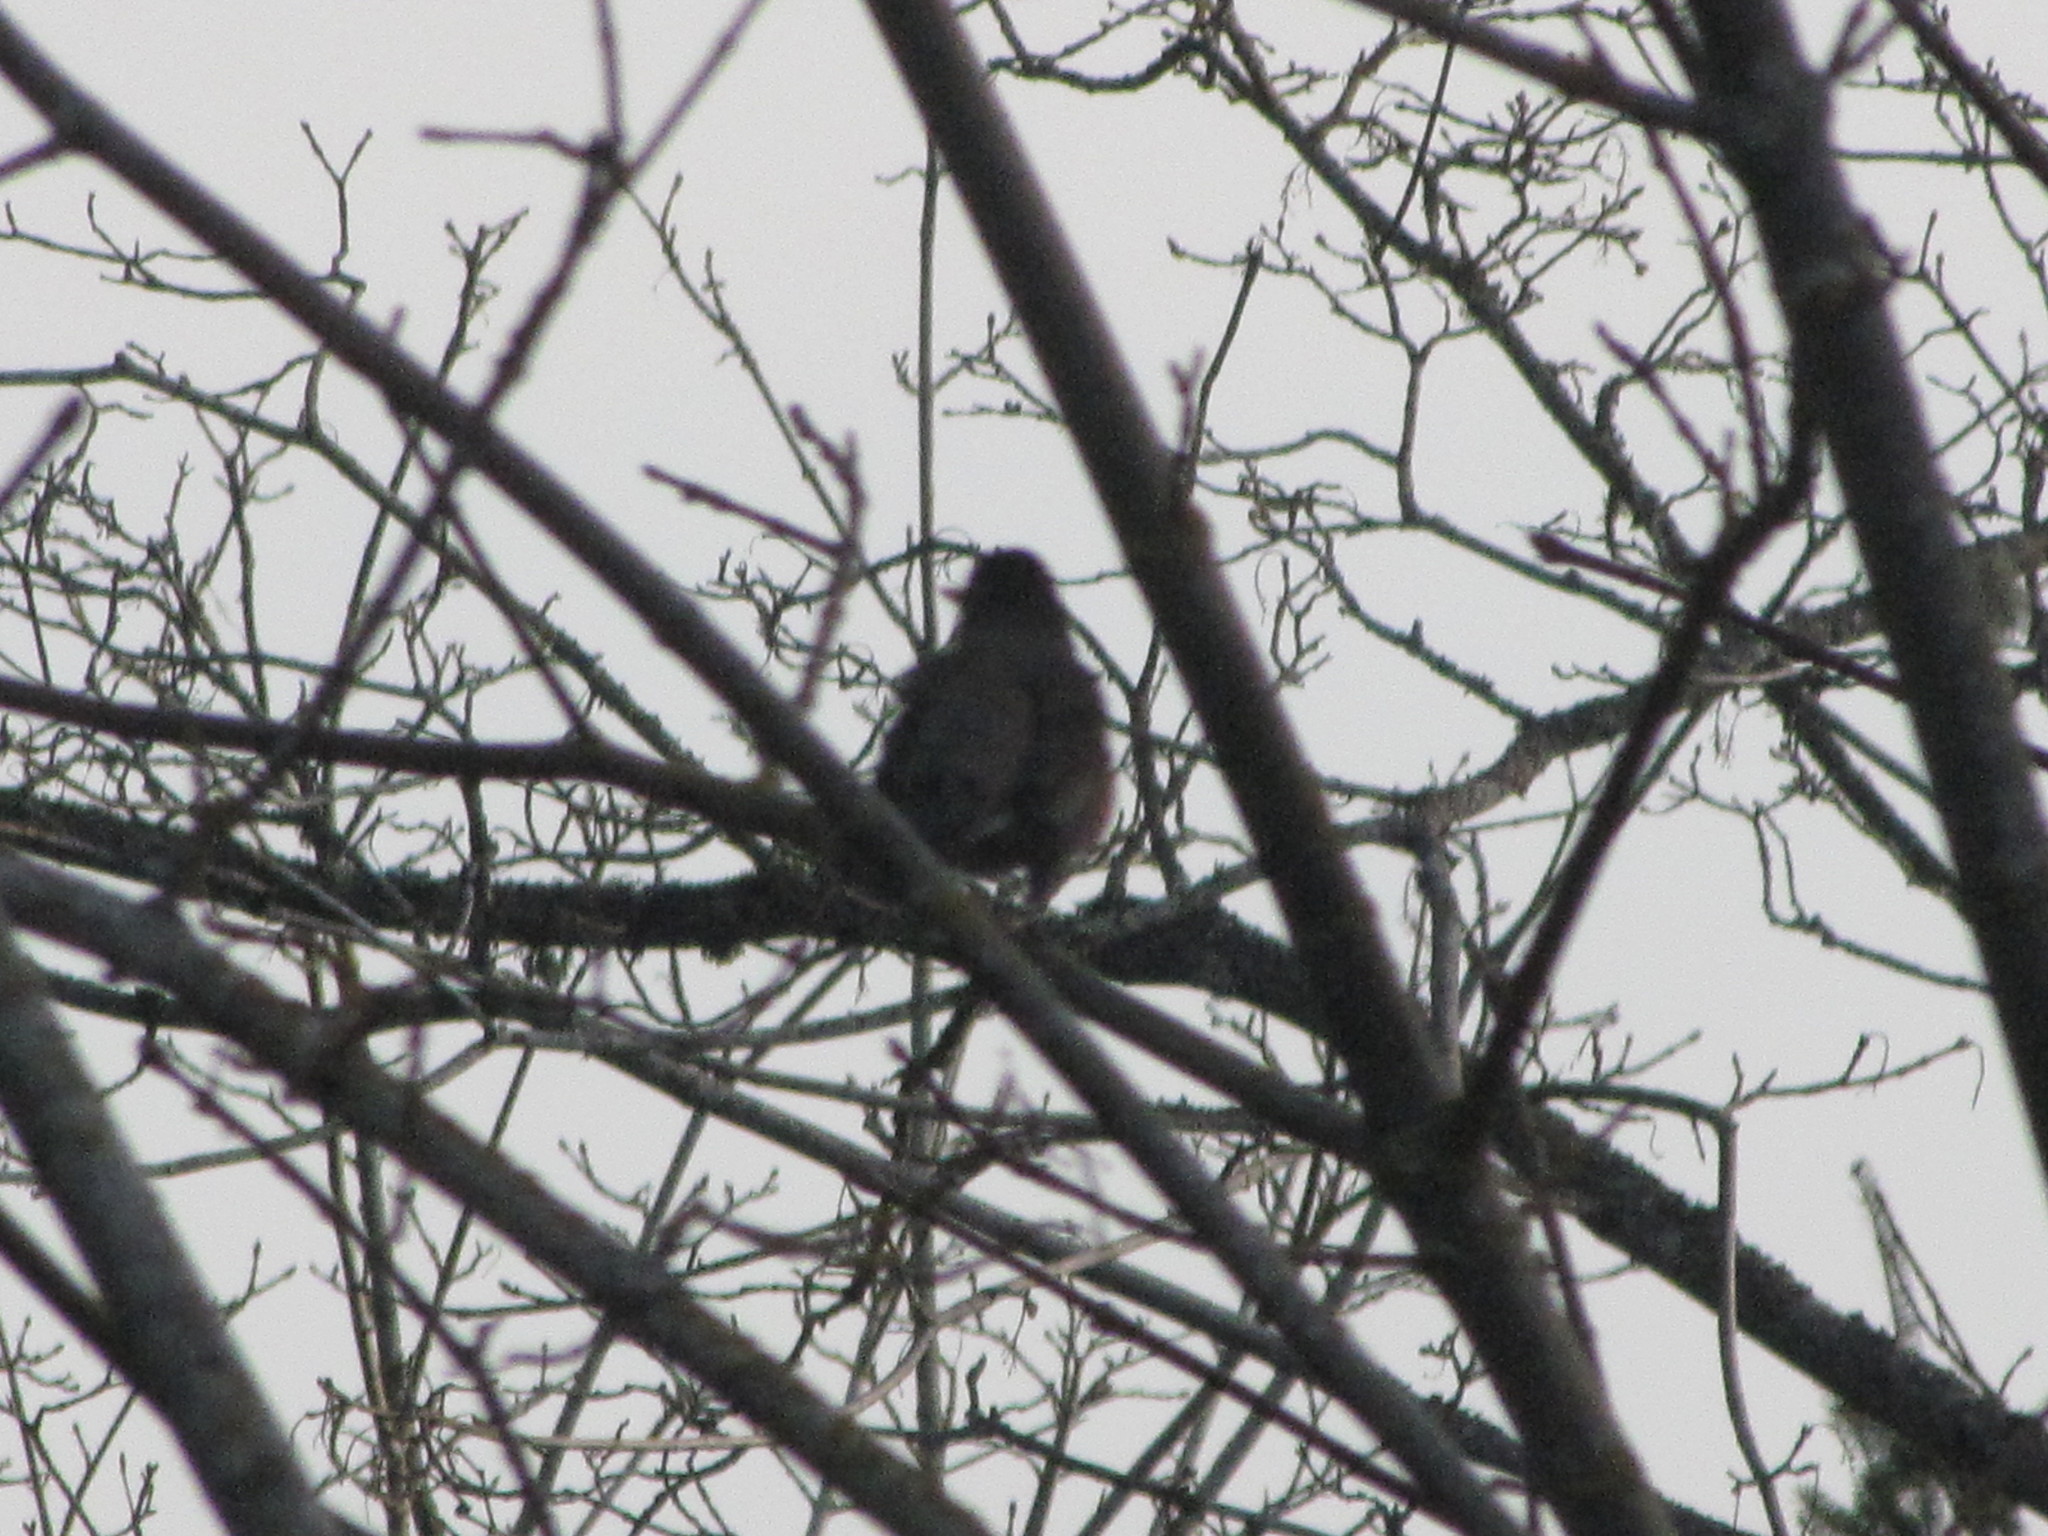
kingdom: Animalia
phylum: Chordata
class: Aves
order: Passeriformes
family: Turdidae
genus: Turdus
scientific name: Turdus migratorius
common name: American robin
